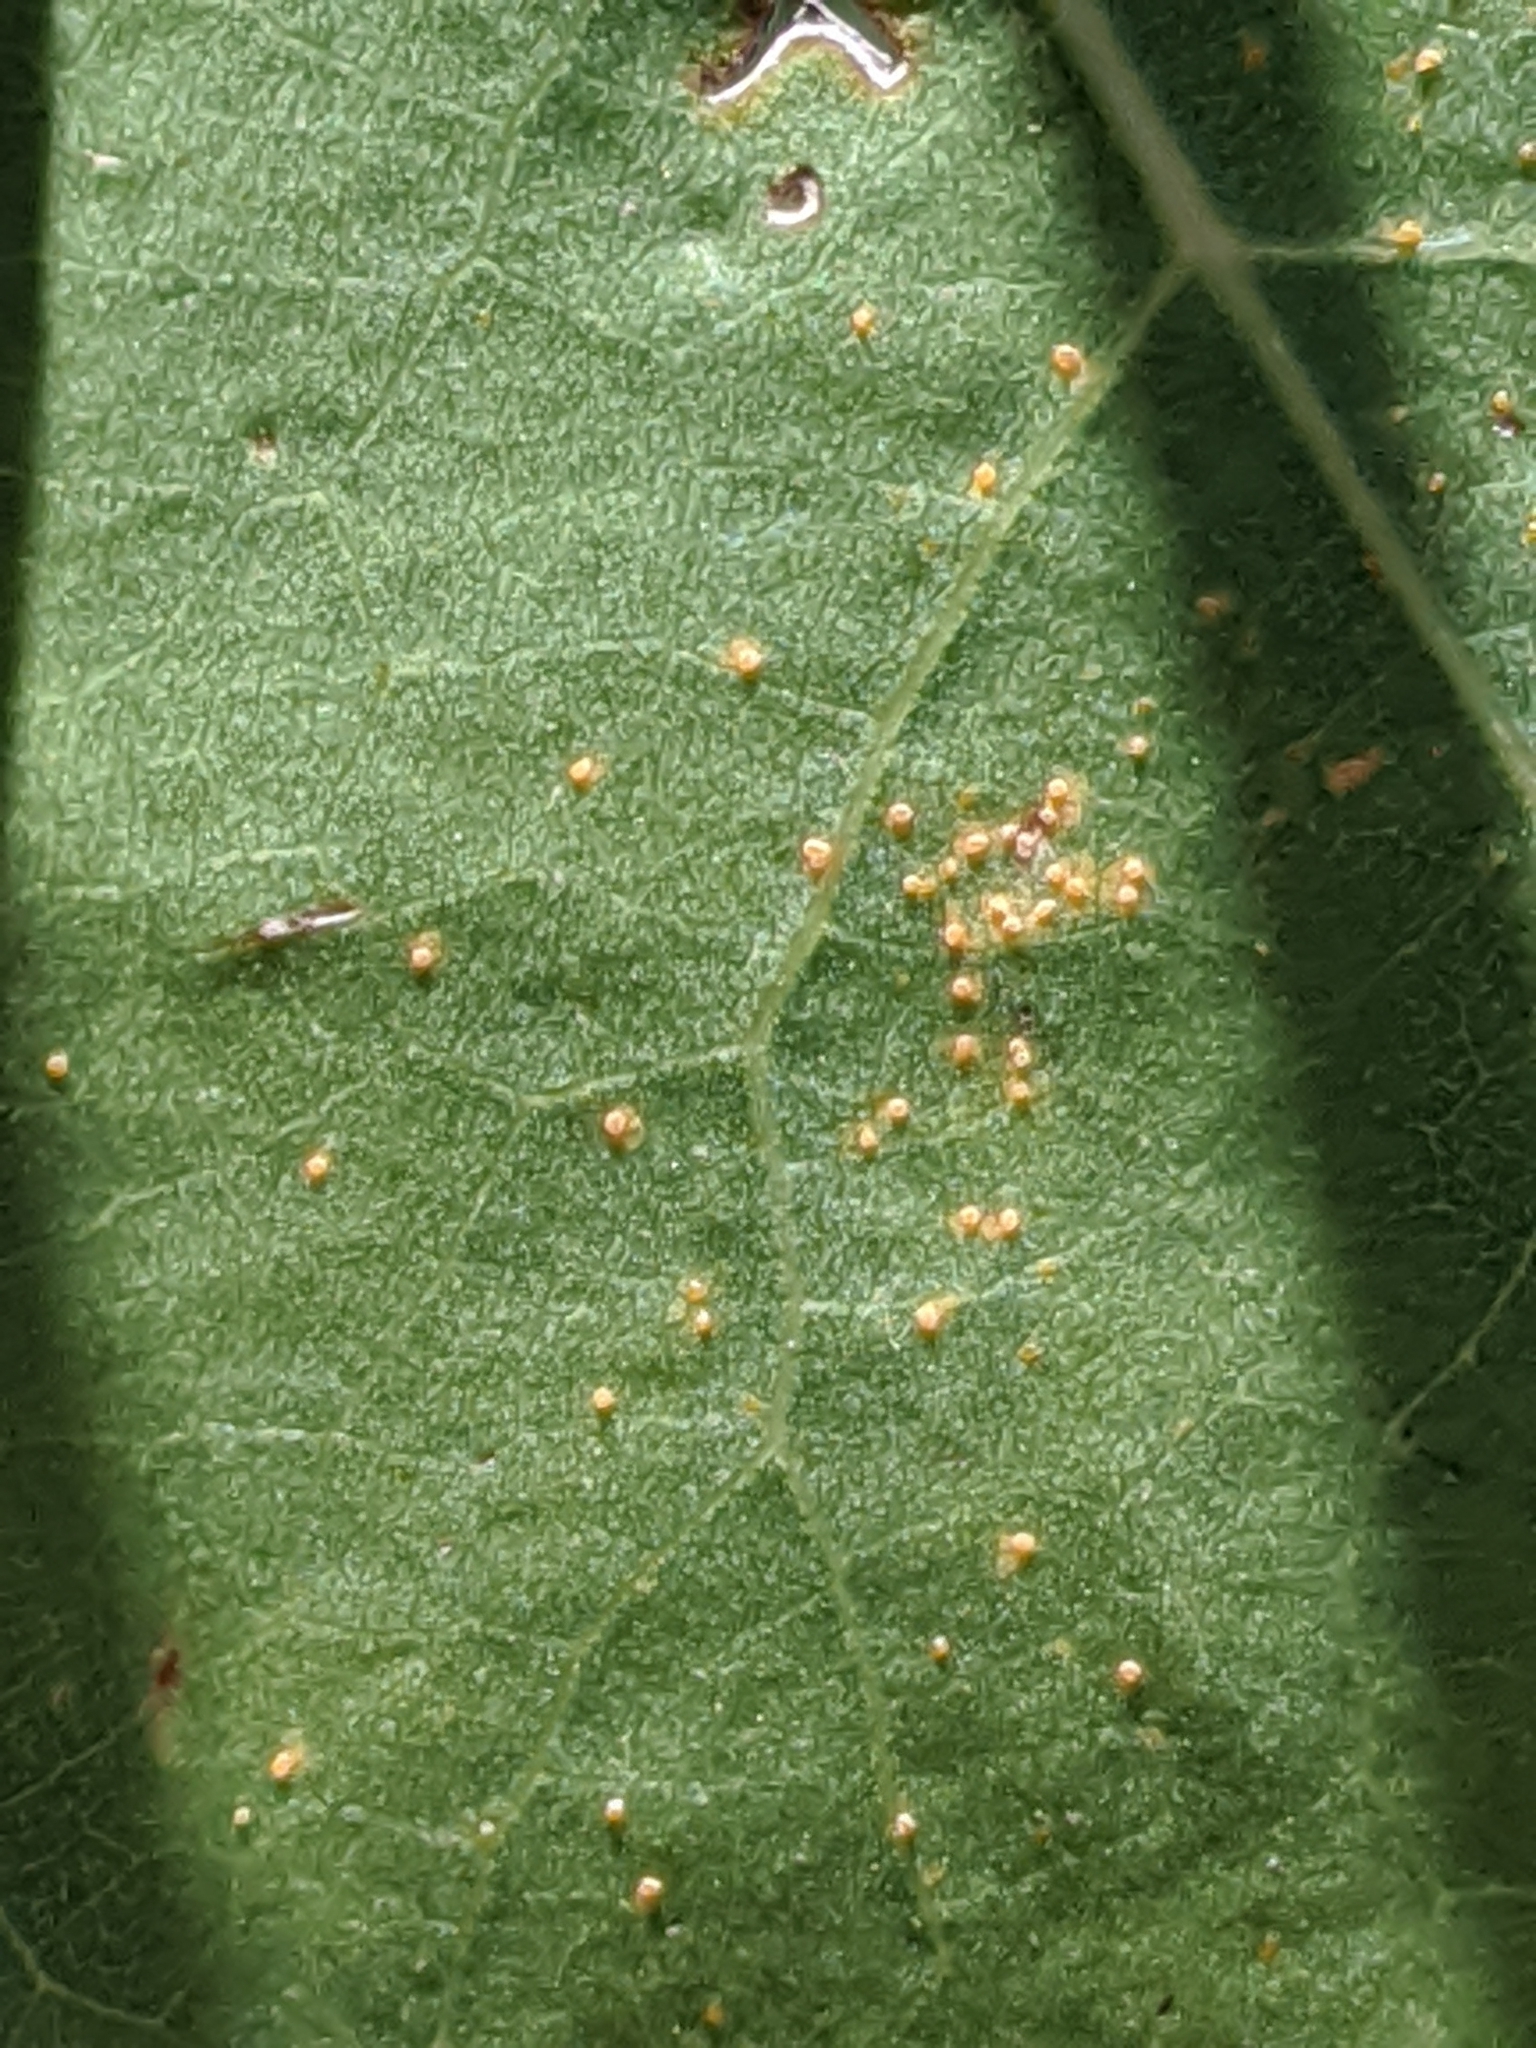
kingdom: Plantae
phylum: Tracheophyta
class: Magnoliopsida
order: Malpighiales
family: Salicaceae
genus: Populus
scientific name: Populus deltoides
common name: Eastern cottonwood
